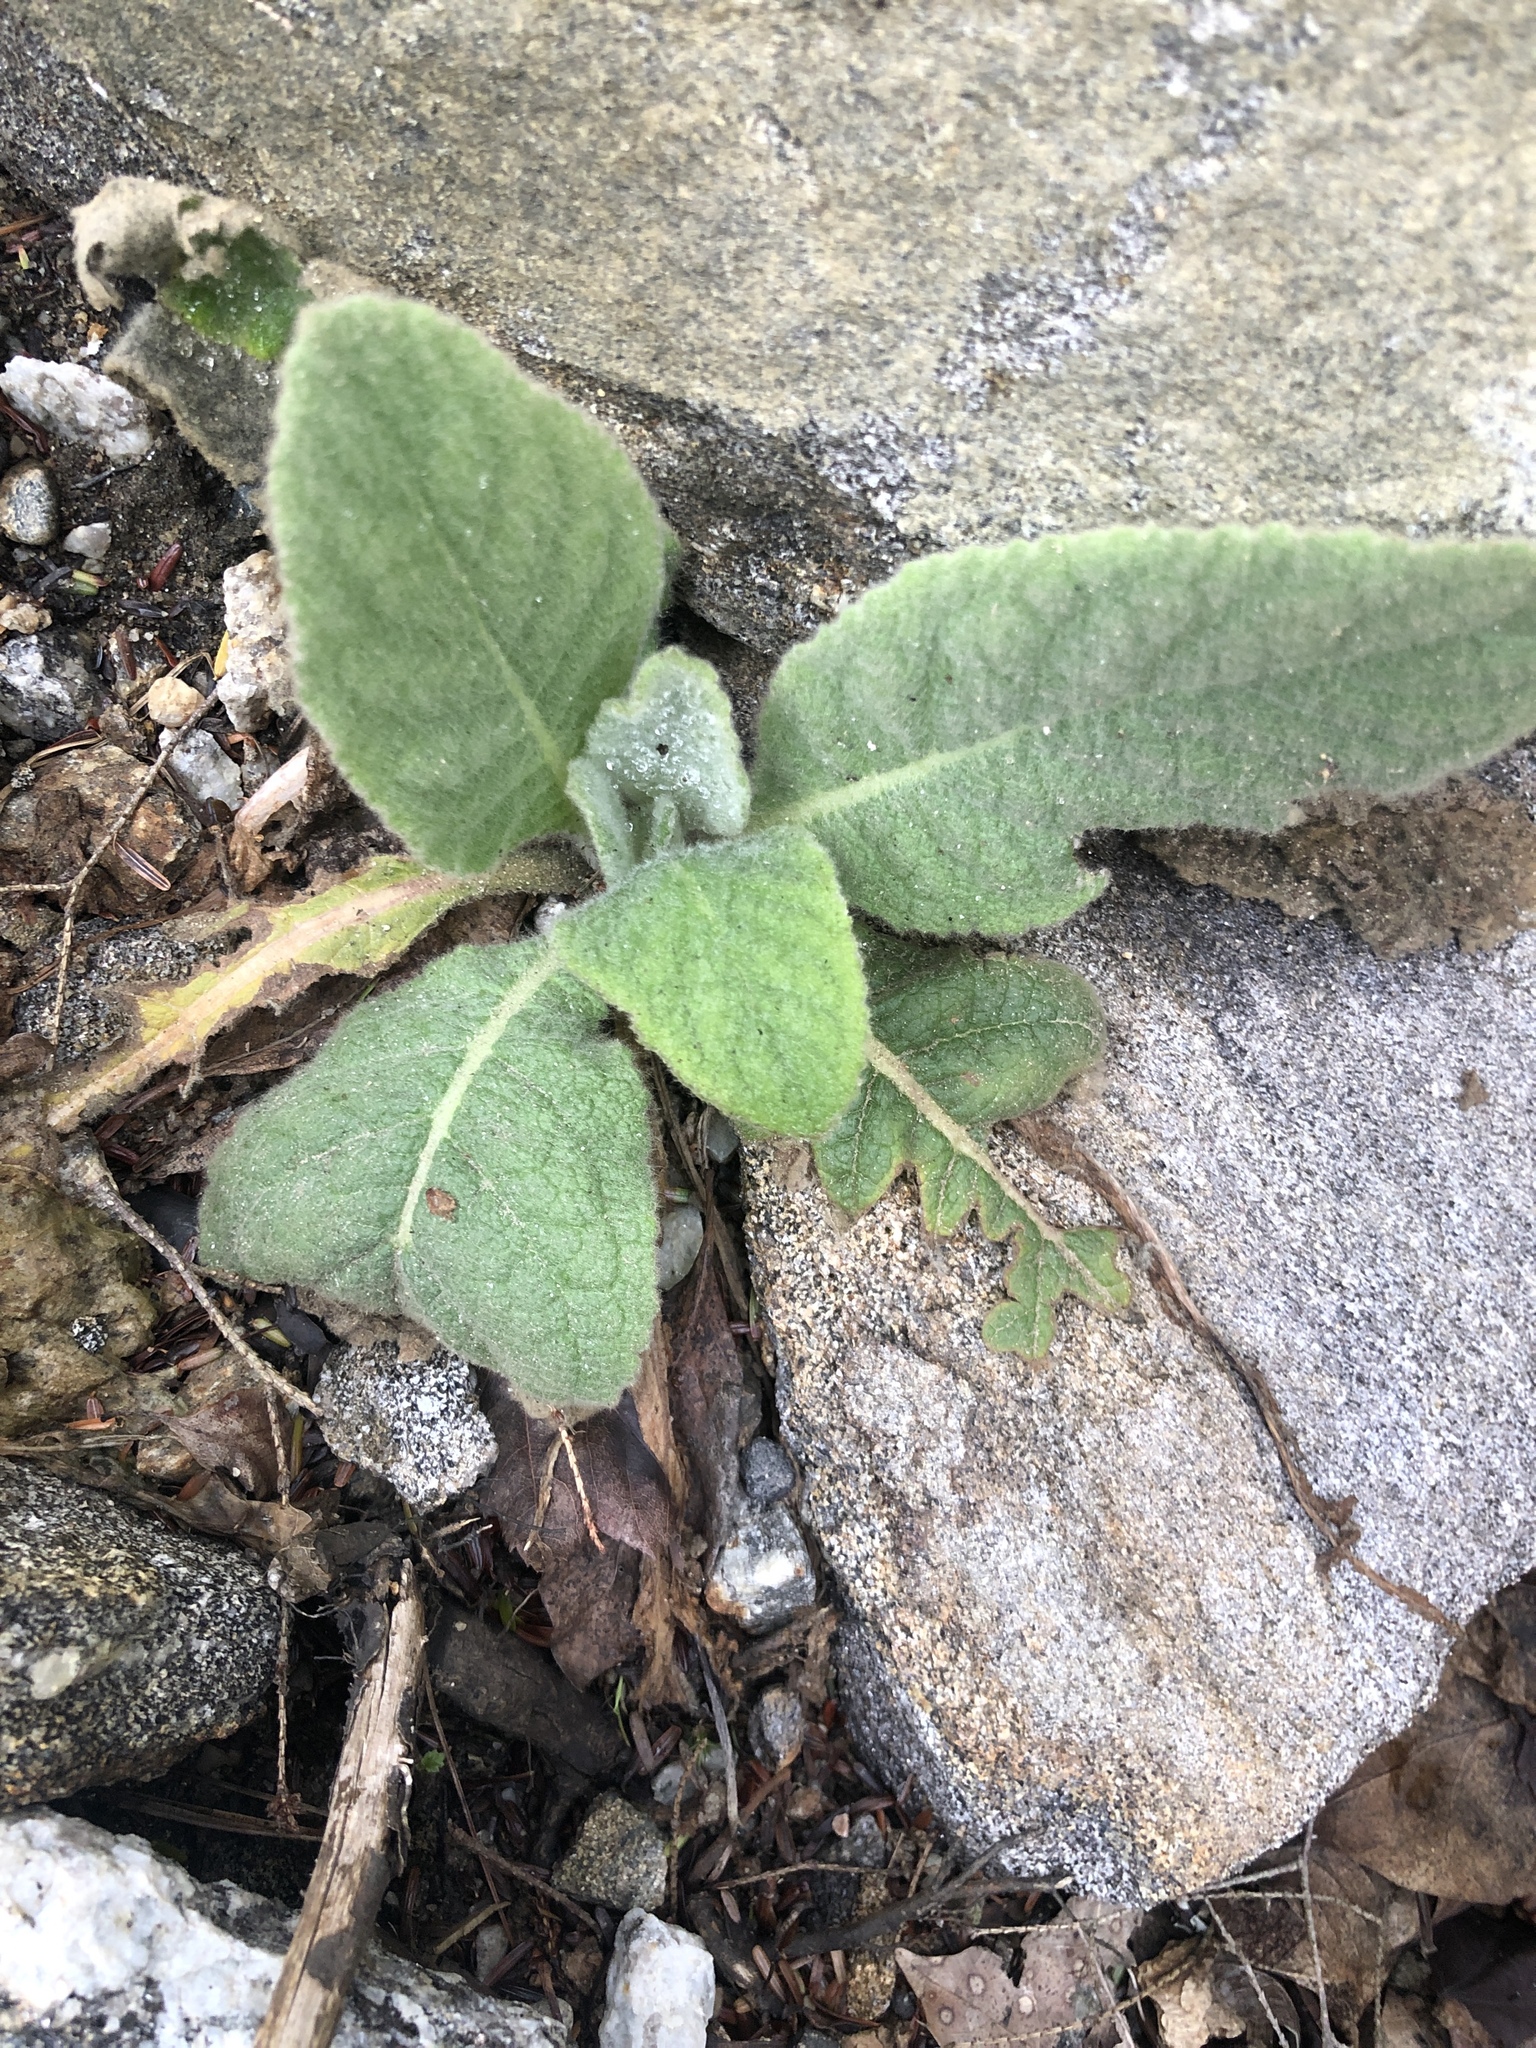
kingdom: Plantae
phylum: Tracheophyta
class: Magnoliopsida
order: Lamiales
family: Scrophulariaceae
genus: Verbascum
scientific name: Verbascum thapsus
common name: Common mullein
